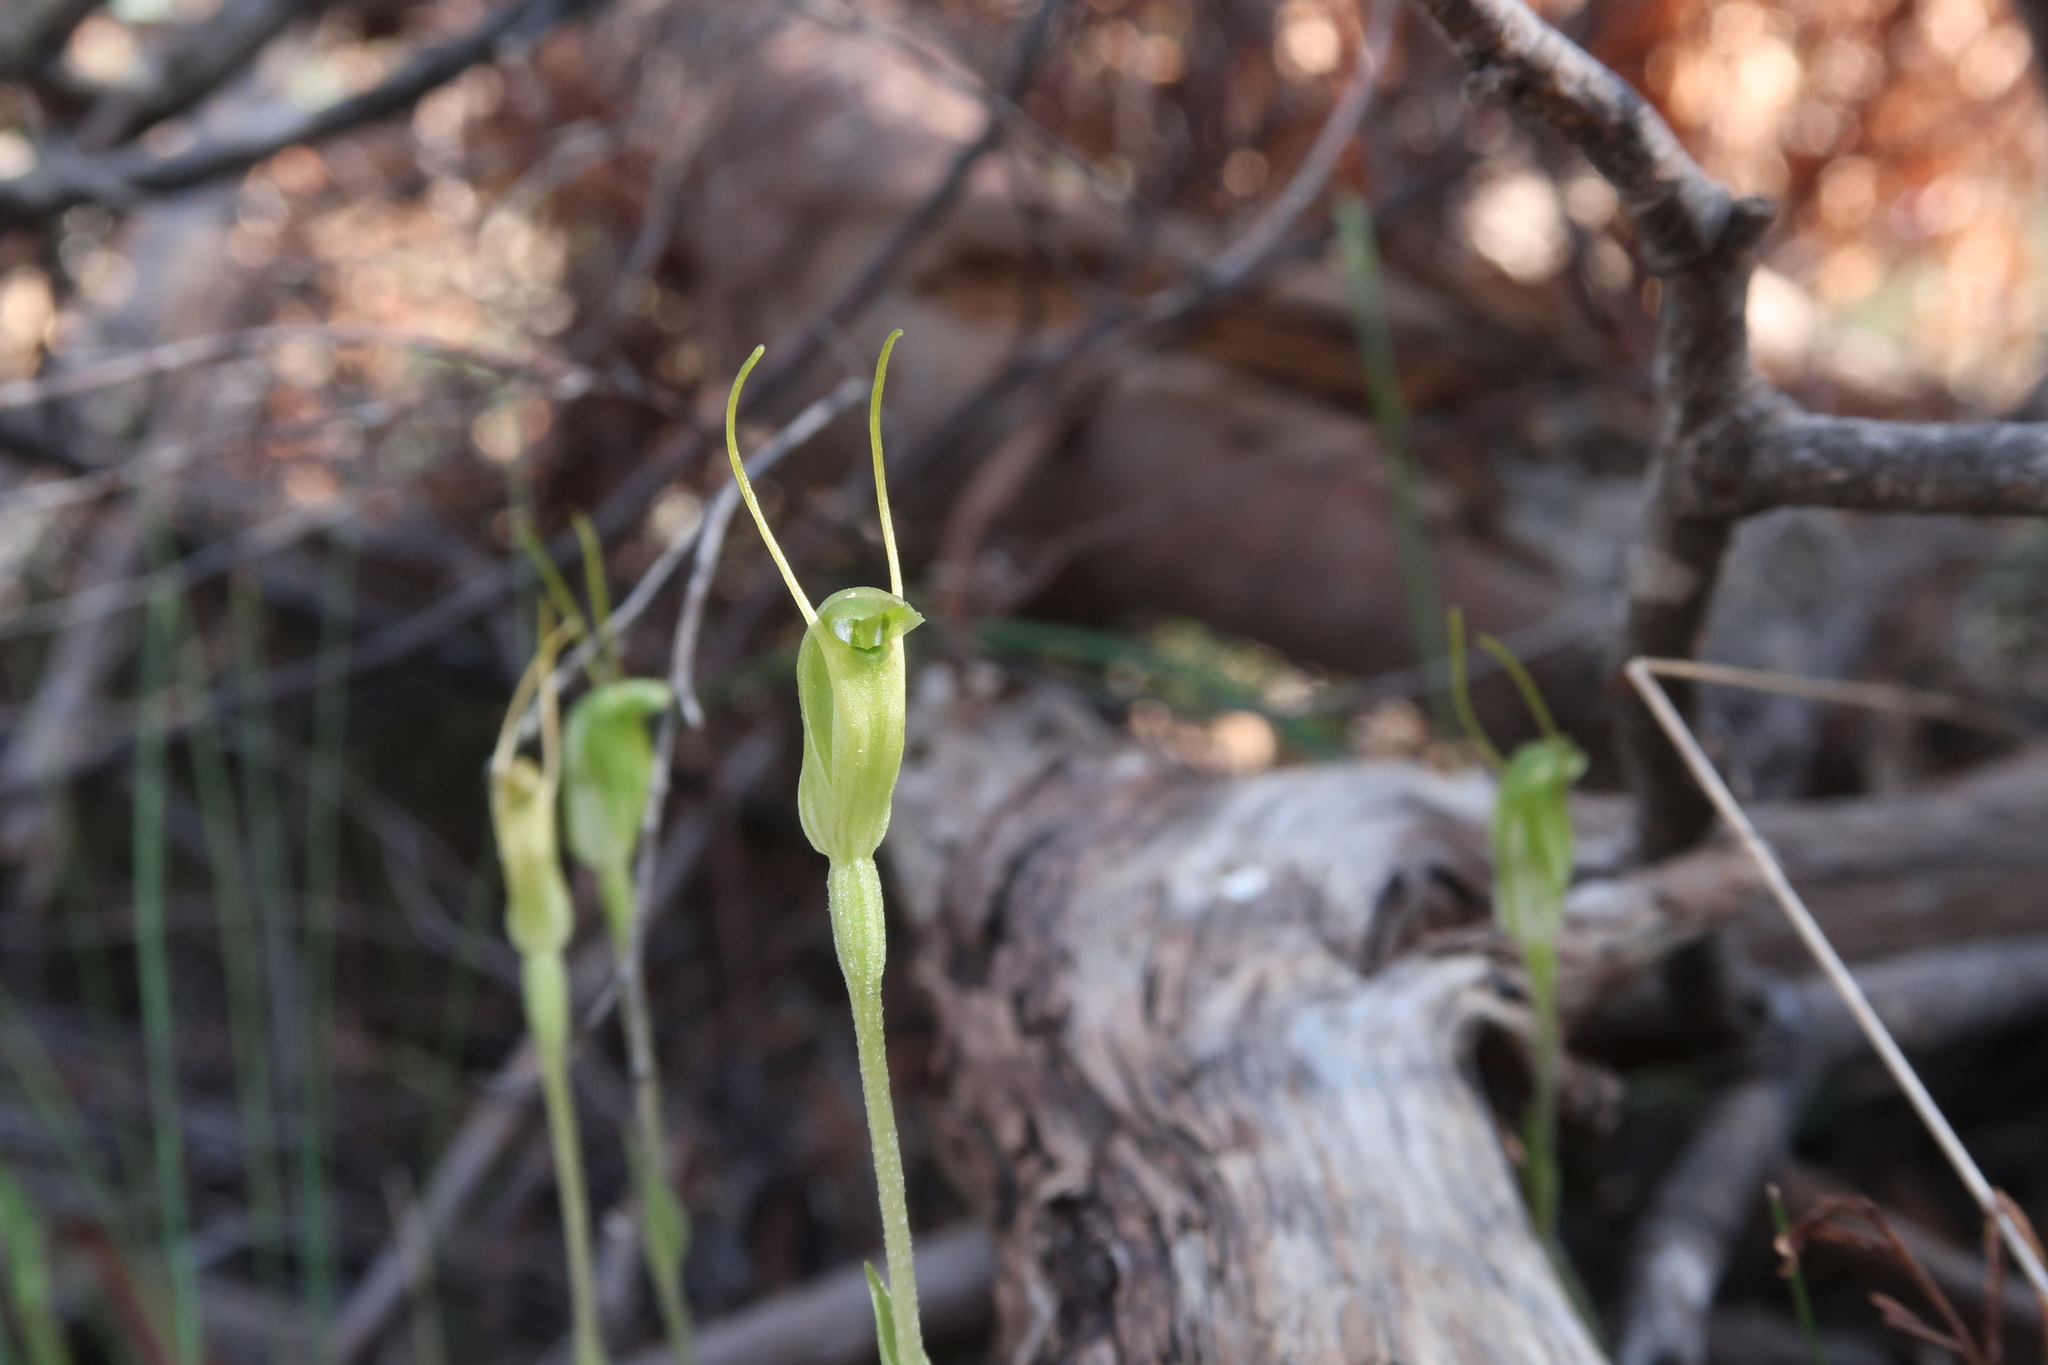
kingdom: Plantae
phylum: Tracheophyta
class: Liliopsida
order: Asparagales
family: Orchidaceae
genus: Pterostylis
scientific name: Pterostylis nana
